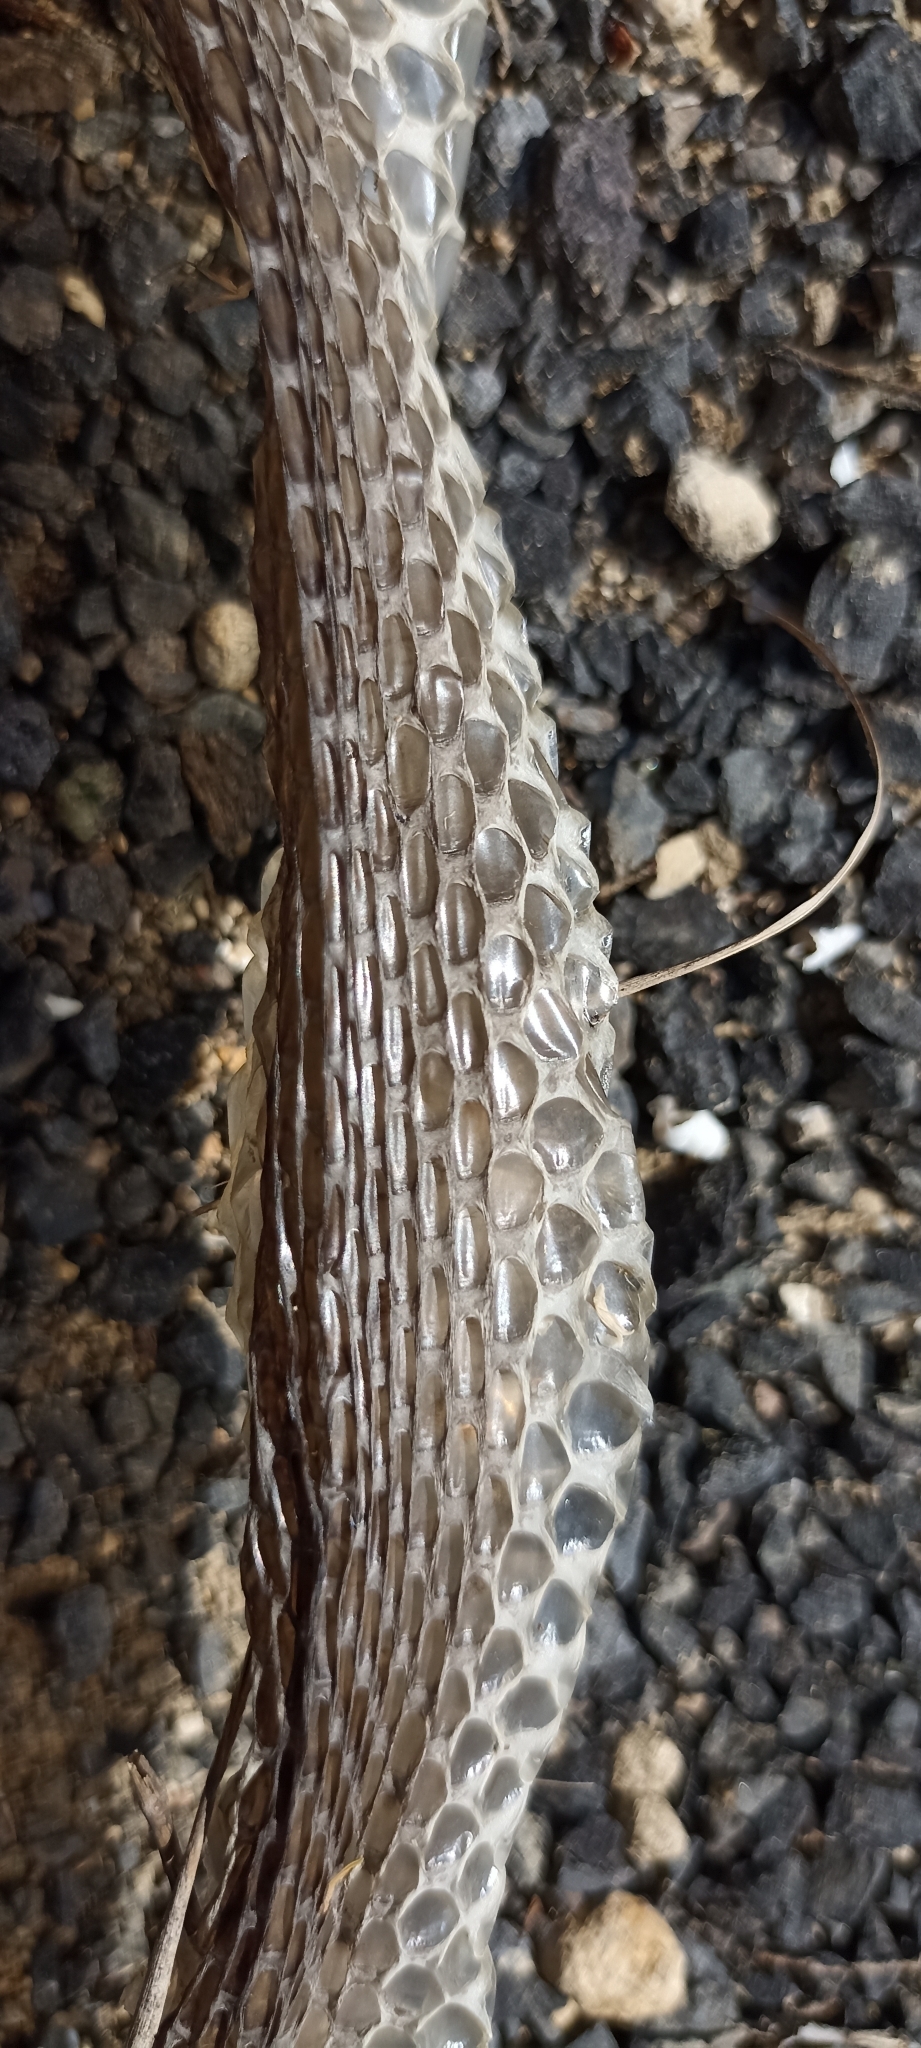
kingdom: Animalia
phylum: Chordata
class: Squamata
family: Psammophiidae
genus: Malpolon
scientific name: Malpolon monspessulanus
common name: Montpellier snake
